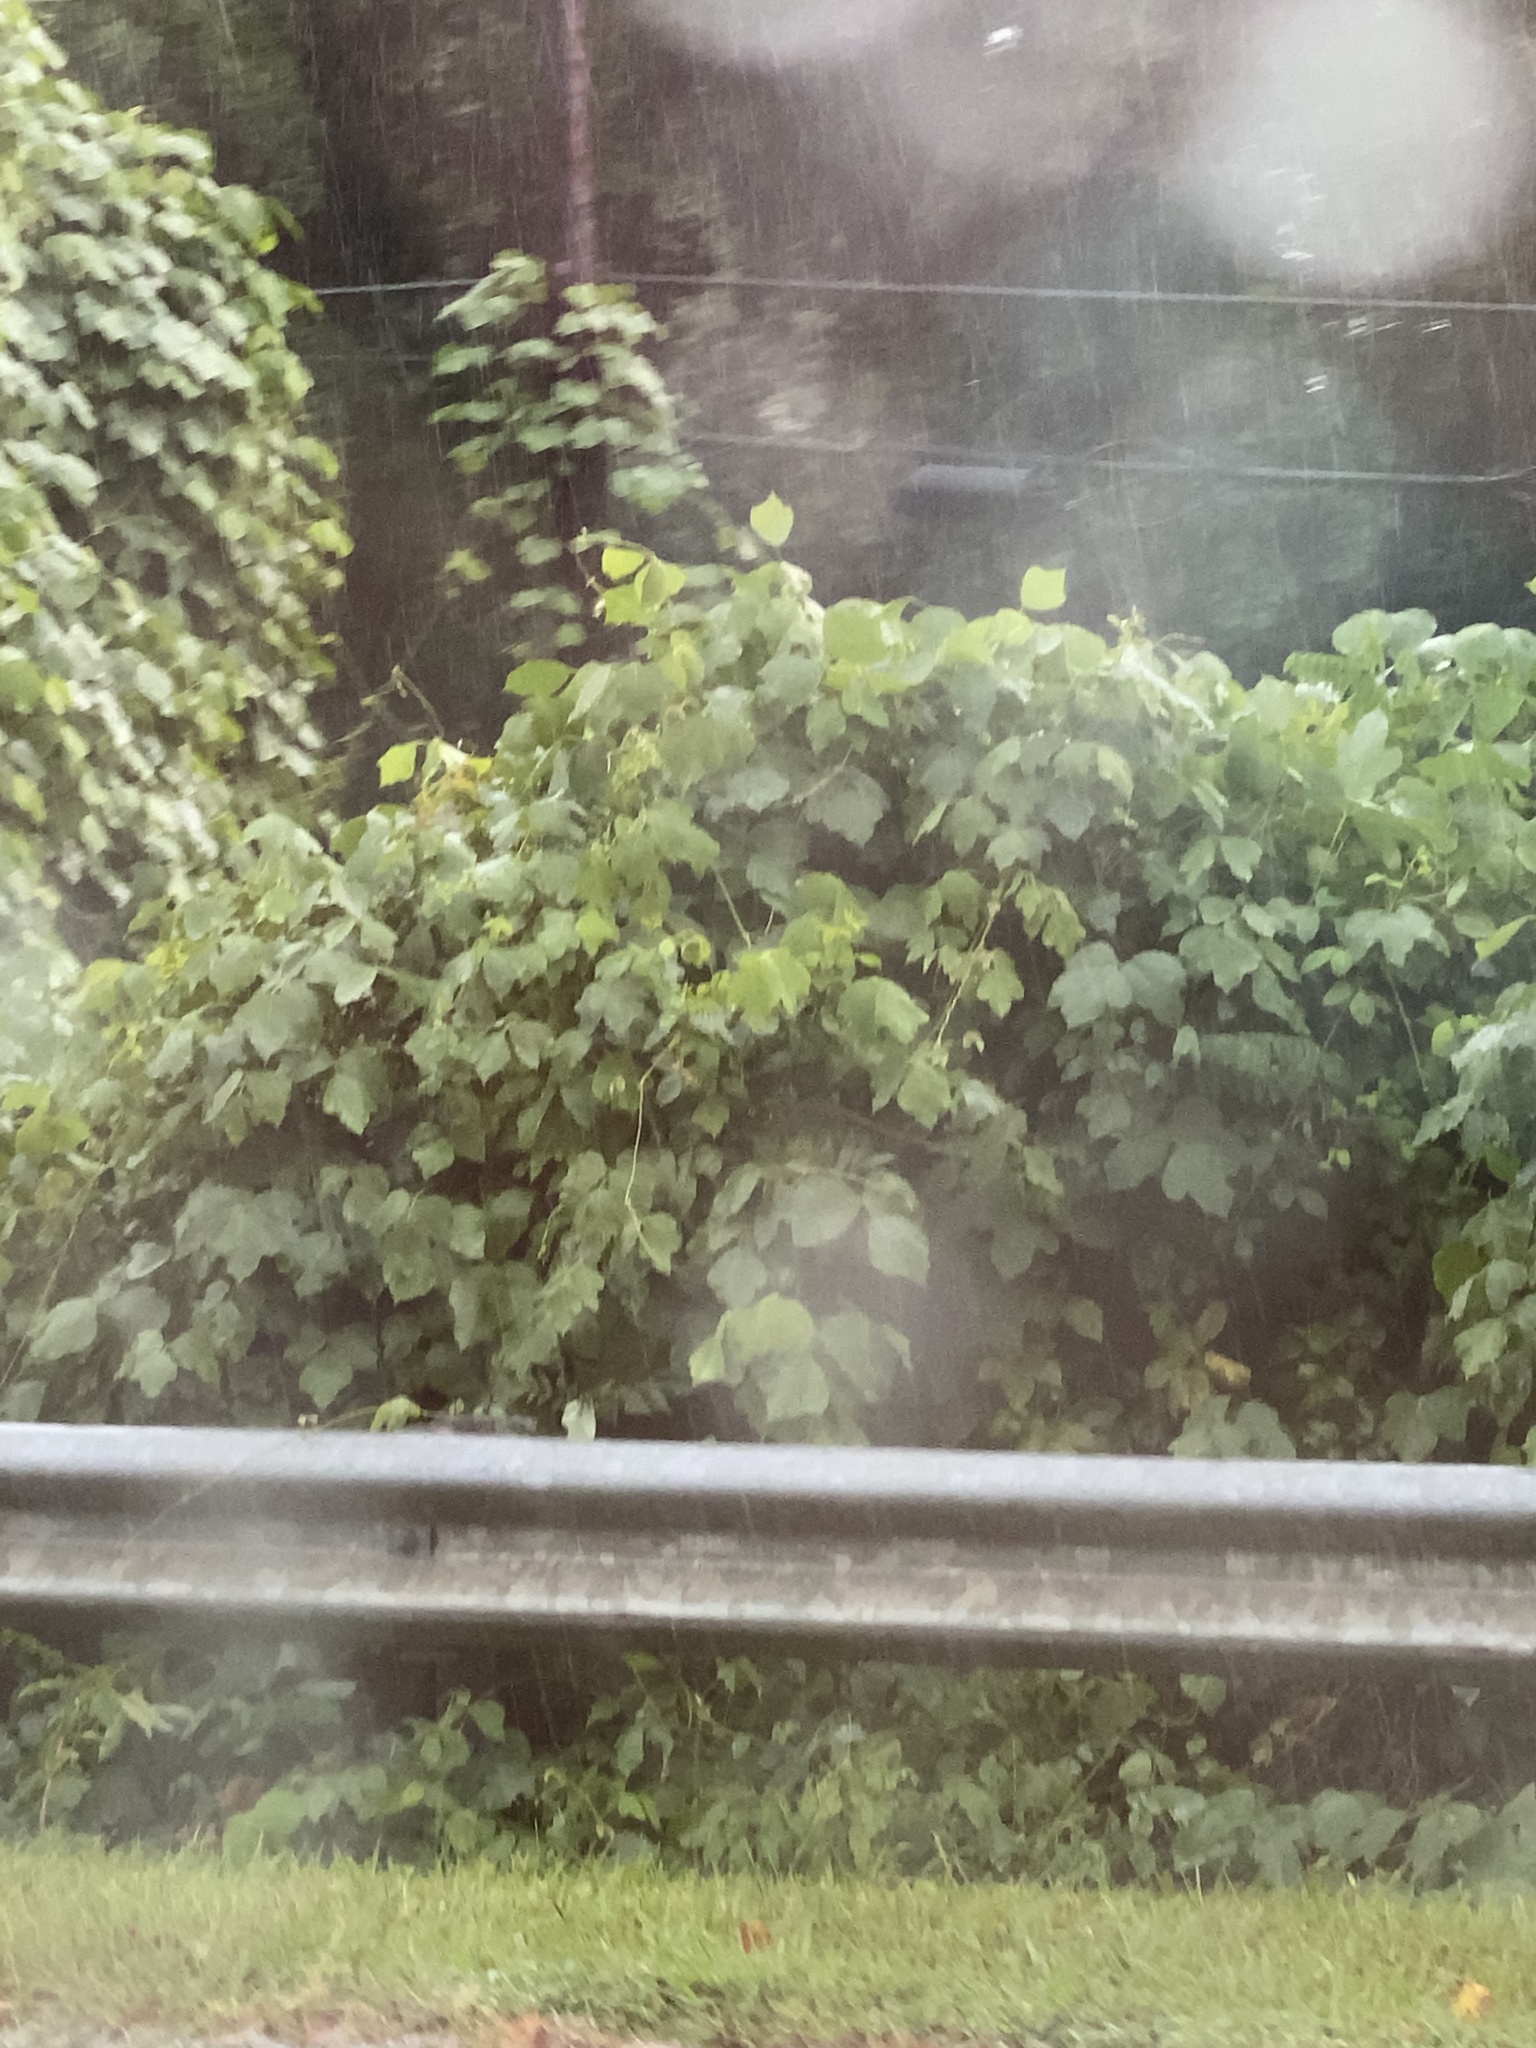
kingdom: Plantae
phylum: Tracheophyta
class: Magnoliopsida
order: Fabales
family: Fabaceae
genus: Pueraria
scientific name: Pueraria montana
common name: Kudzu
